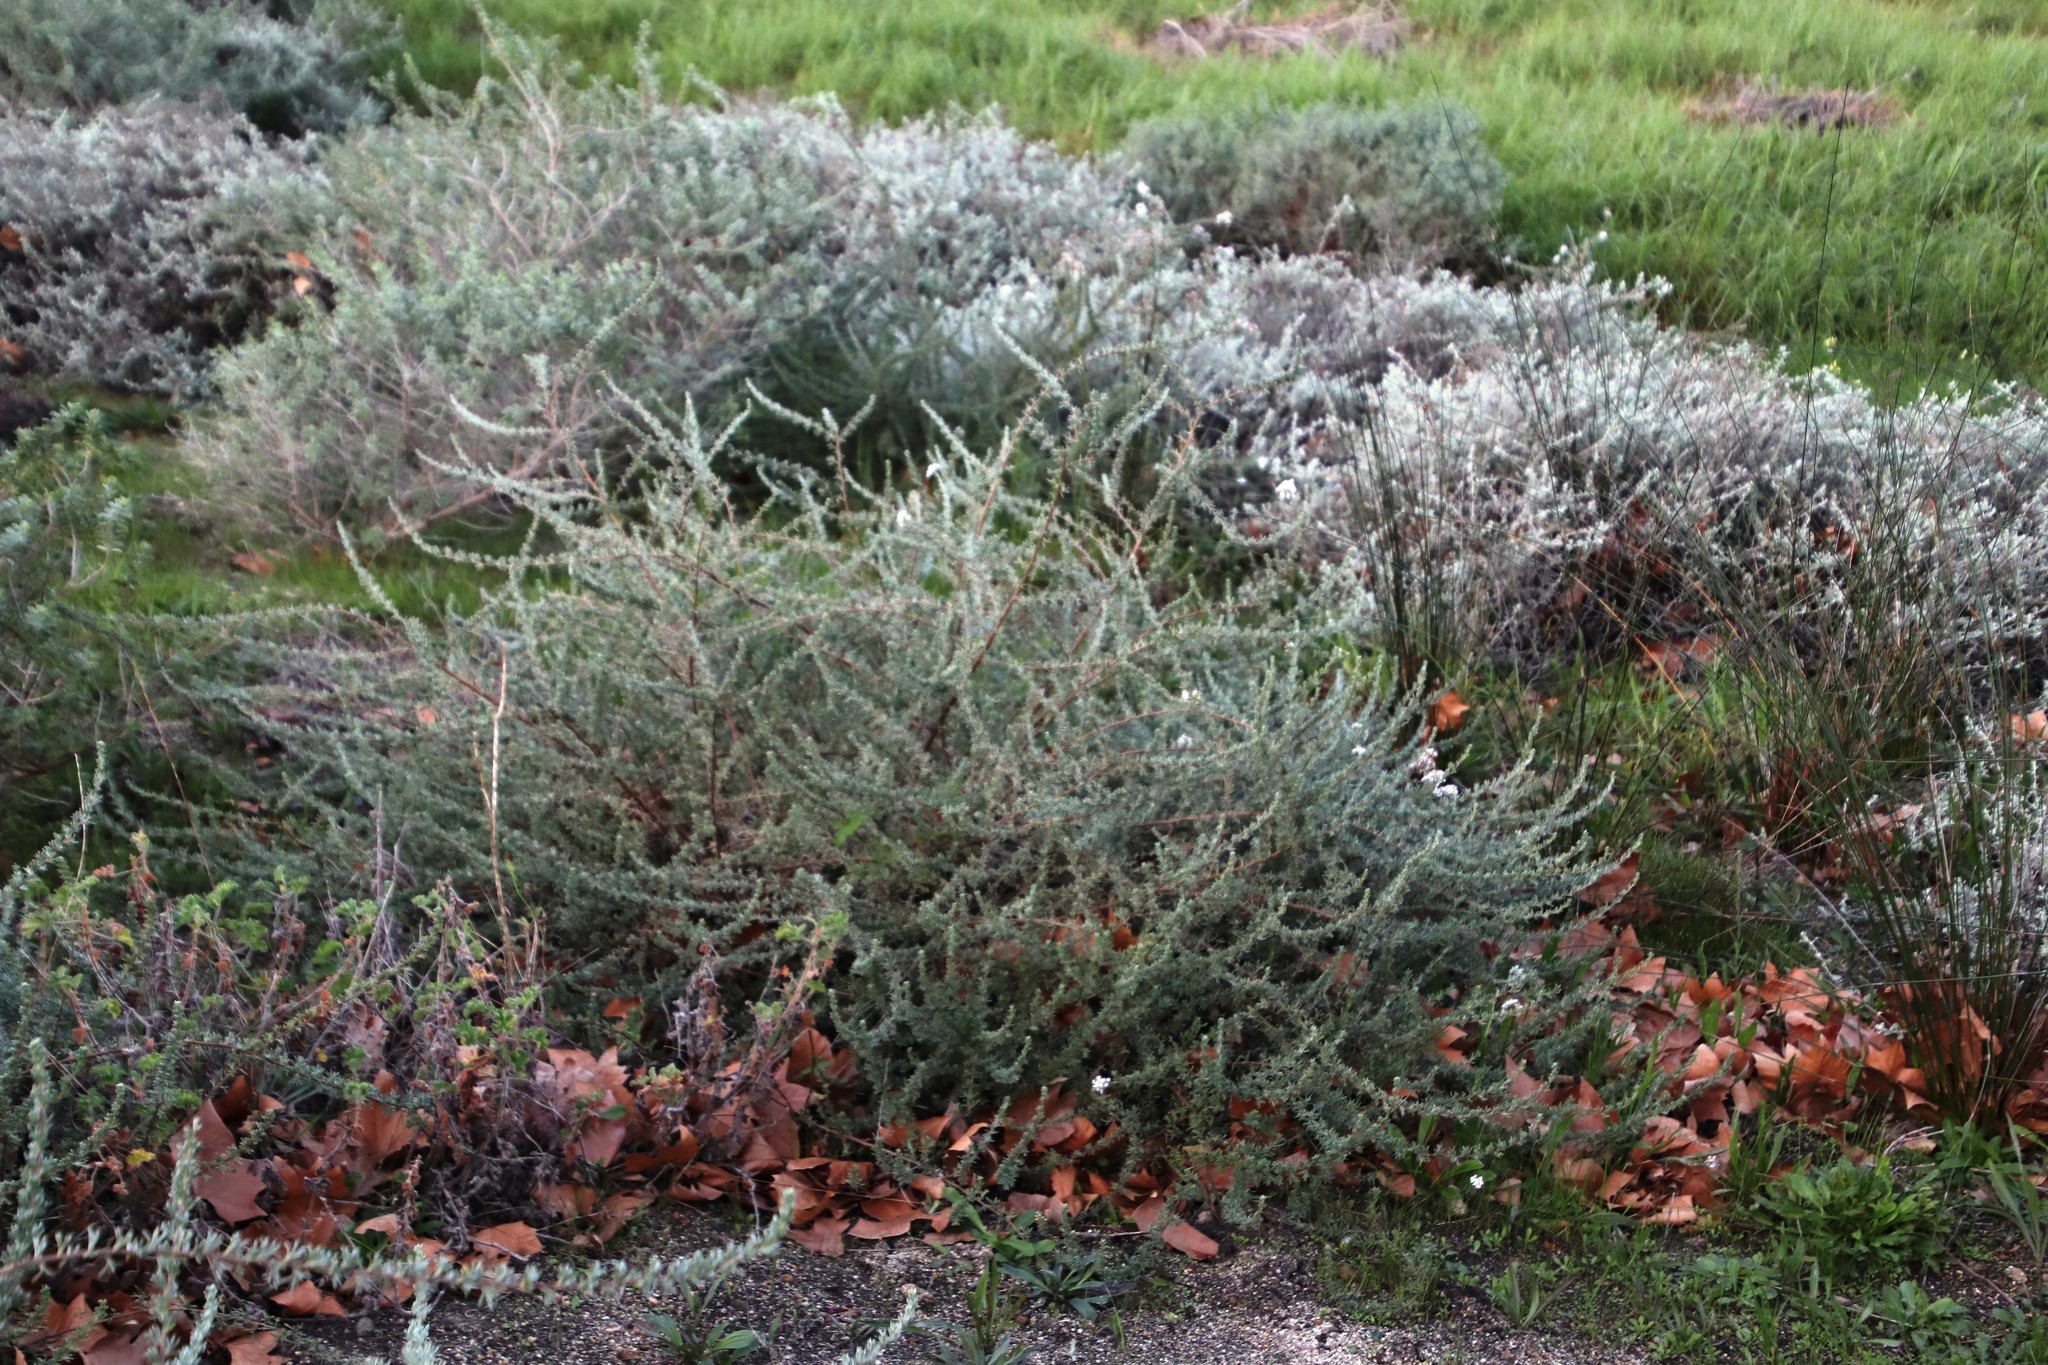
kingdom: Plantae
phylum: Tracheophyta
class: Magnoliopsida
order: Asterales
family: Asteraceae
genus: Eriocephalus
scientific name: Eriocephalus africanus
